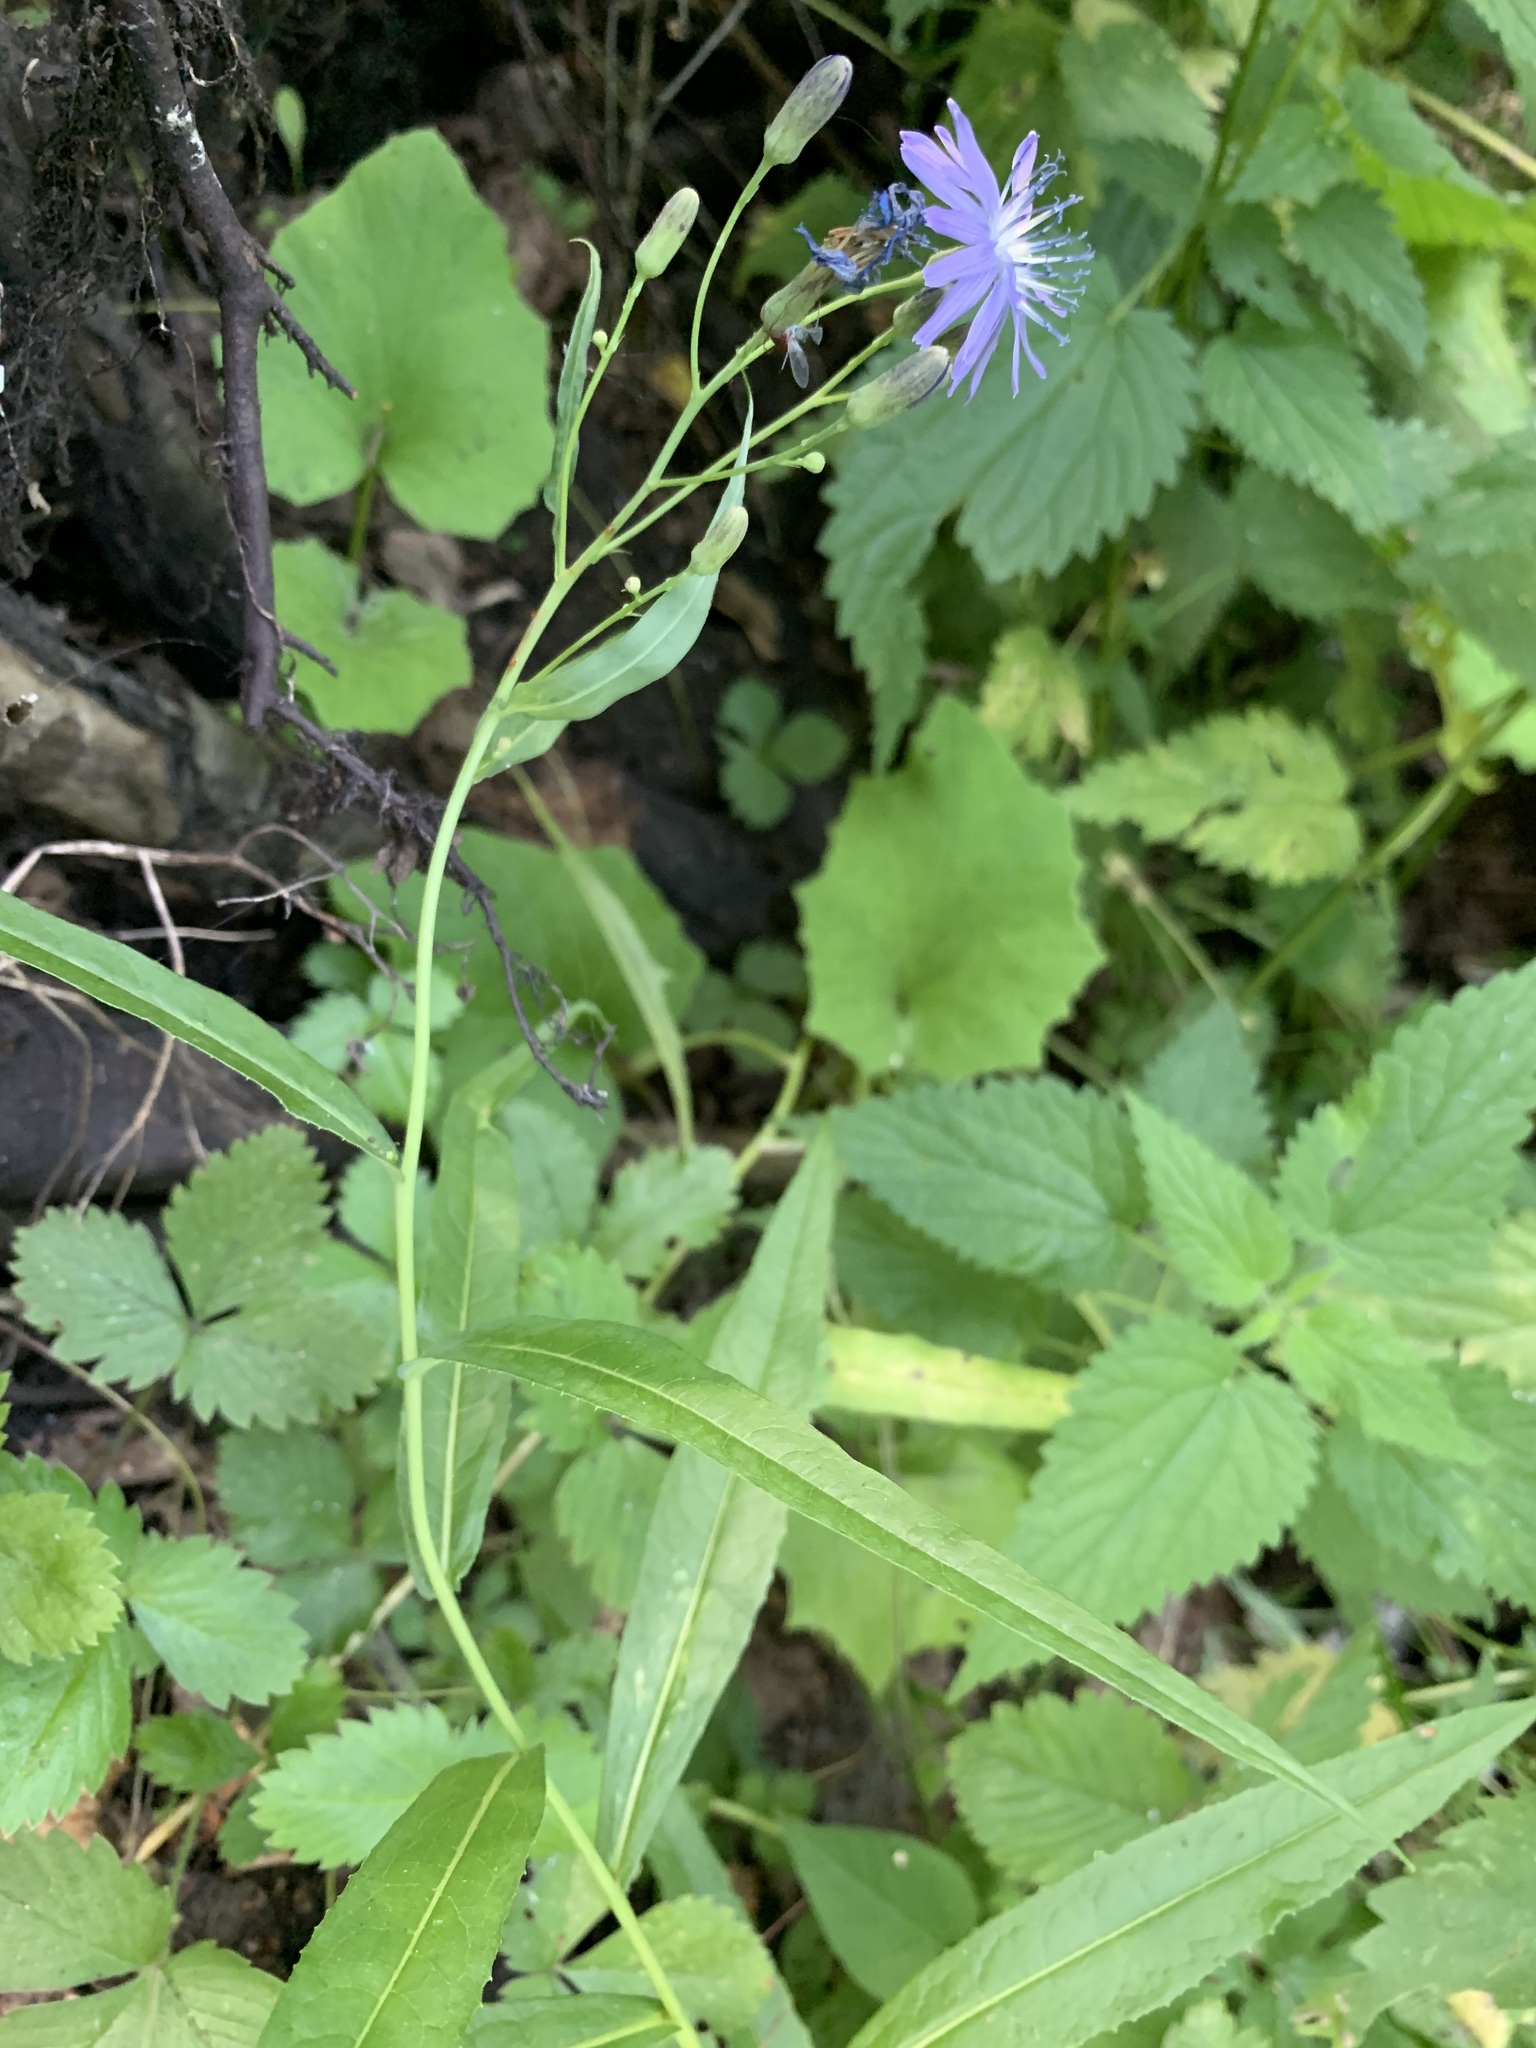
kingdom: Plantae
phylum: Tracheophyta
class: Magnoliopsida
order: Asterales
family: Asteraceae
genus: Lactuca
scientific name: Lactuca sibirica
